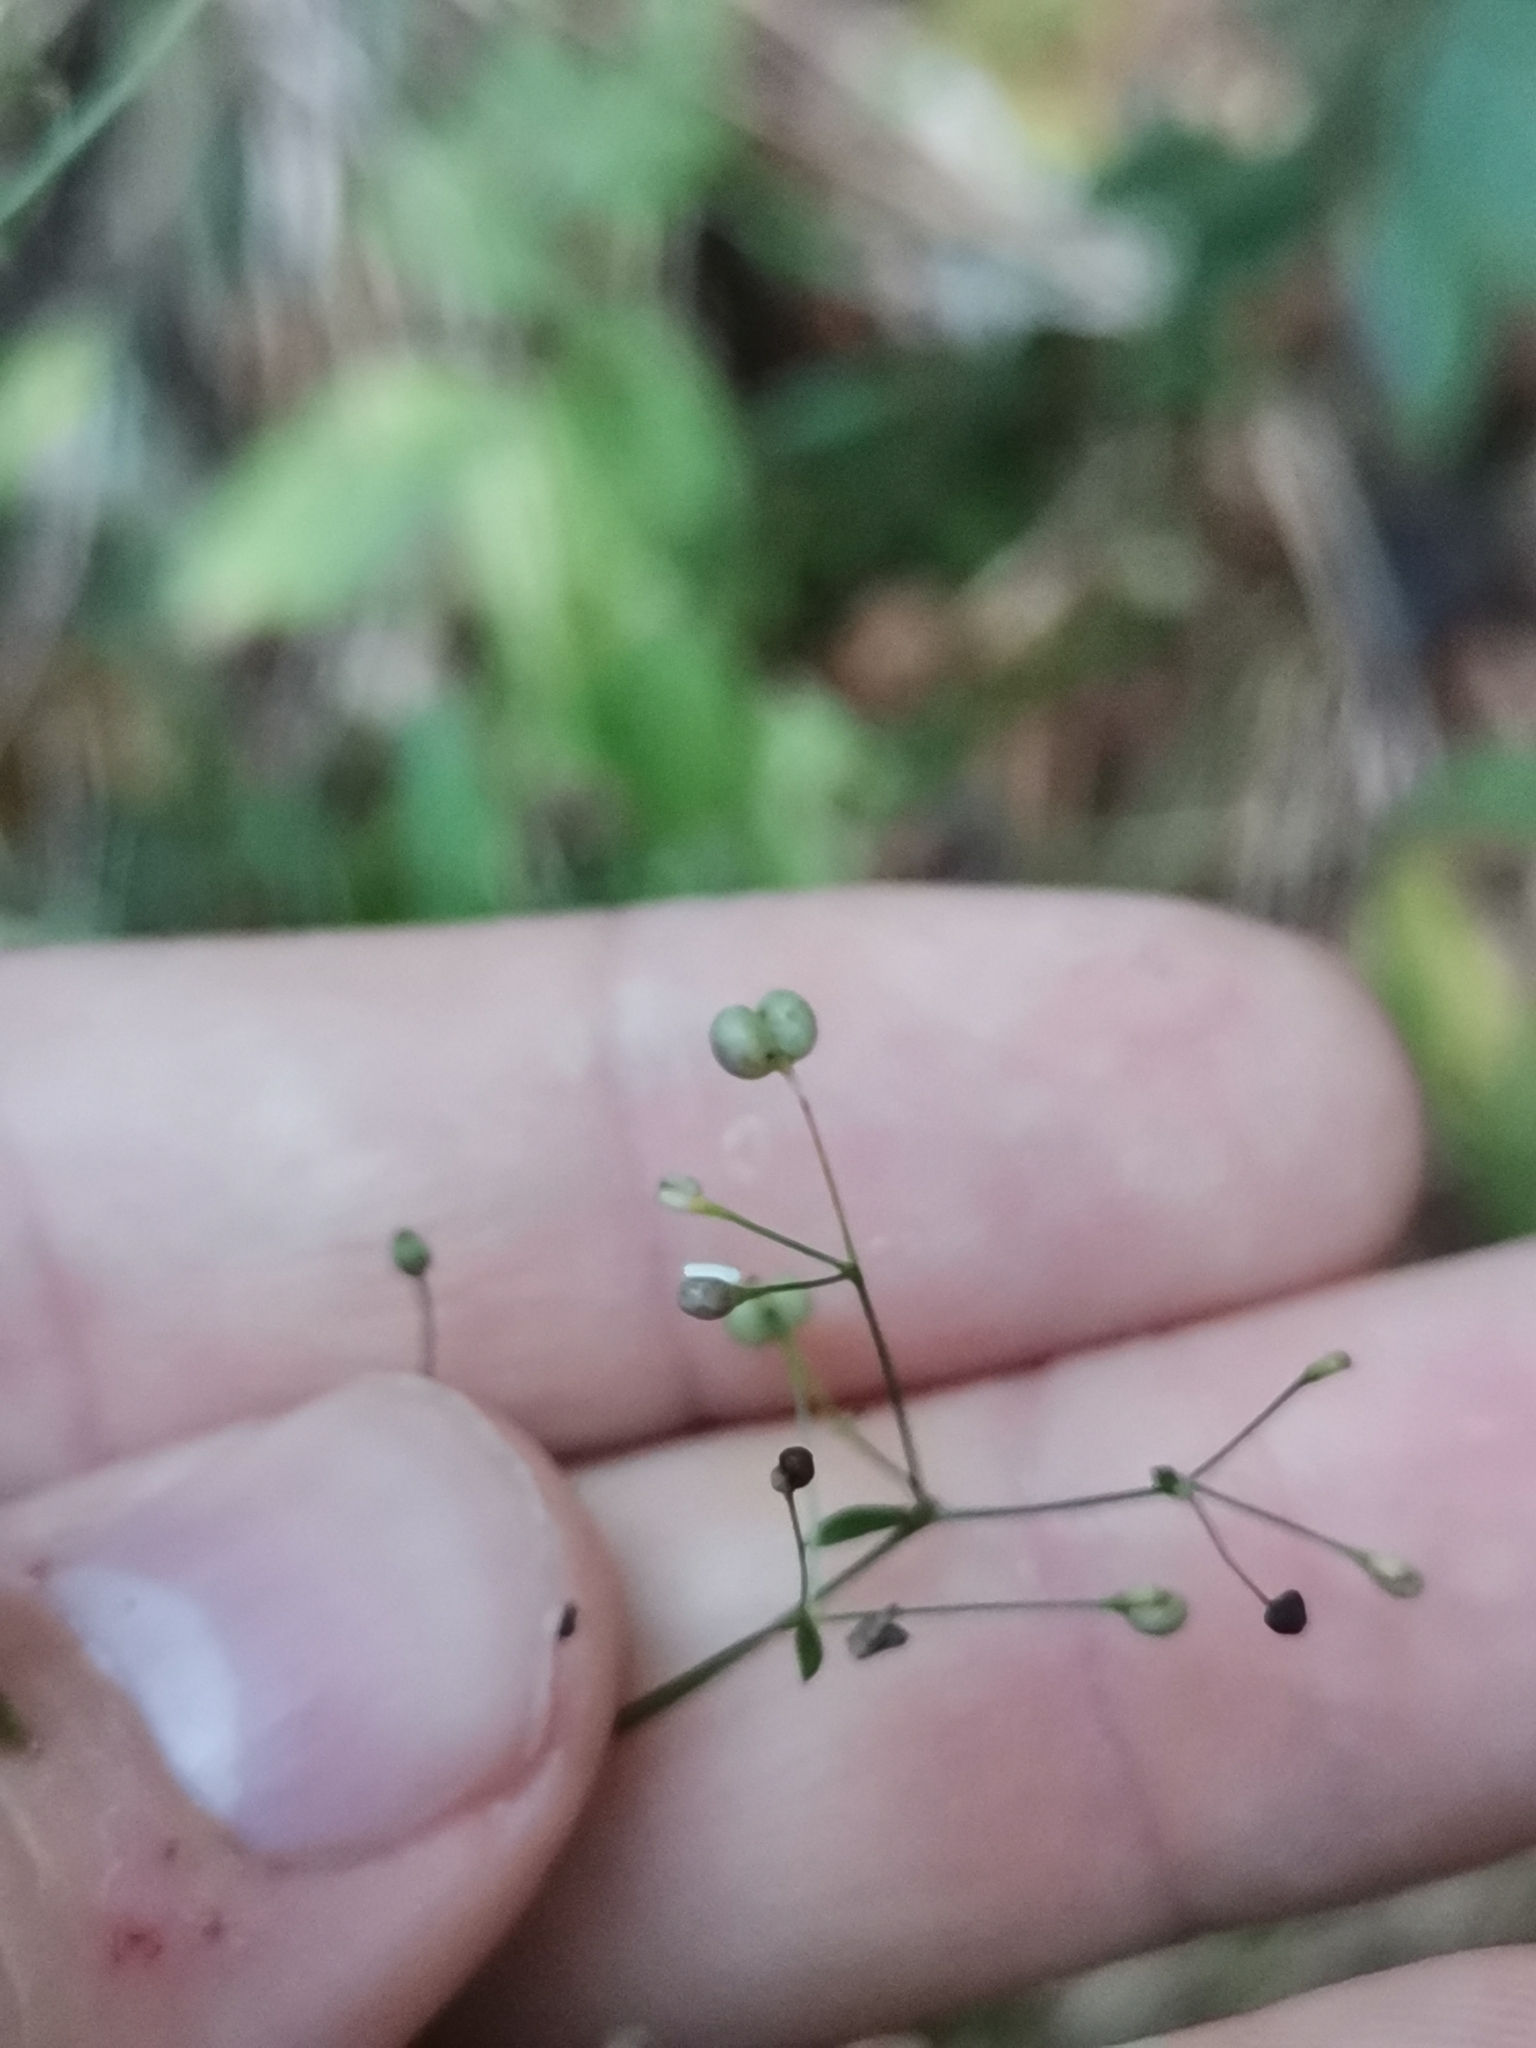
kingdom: Plantae
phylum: Tracheophyta
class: Magnoliopsida
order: Gentianales
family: Rubiaceae
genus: Galium
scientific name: Galium intermedium
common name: Bedstraw
